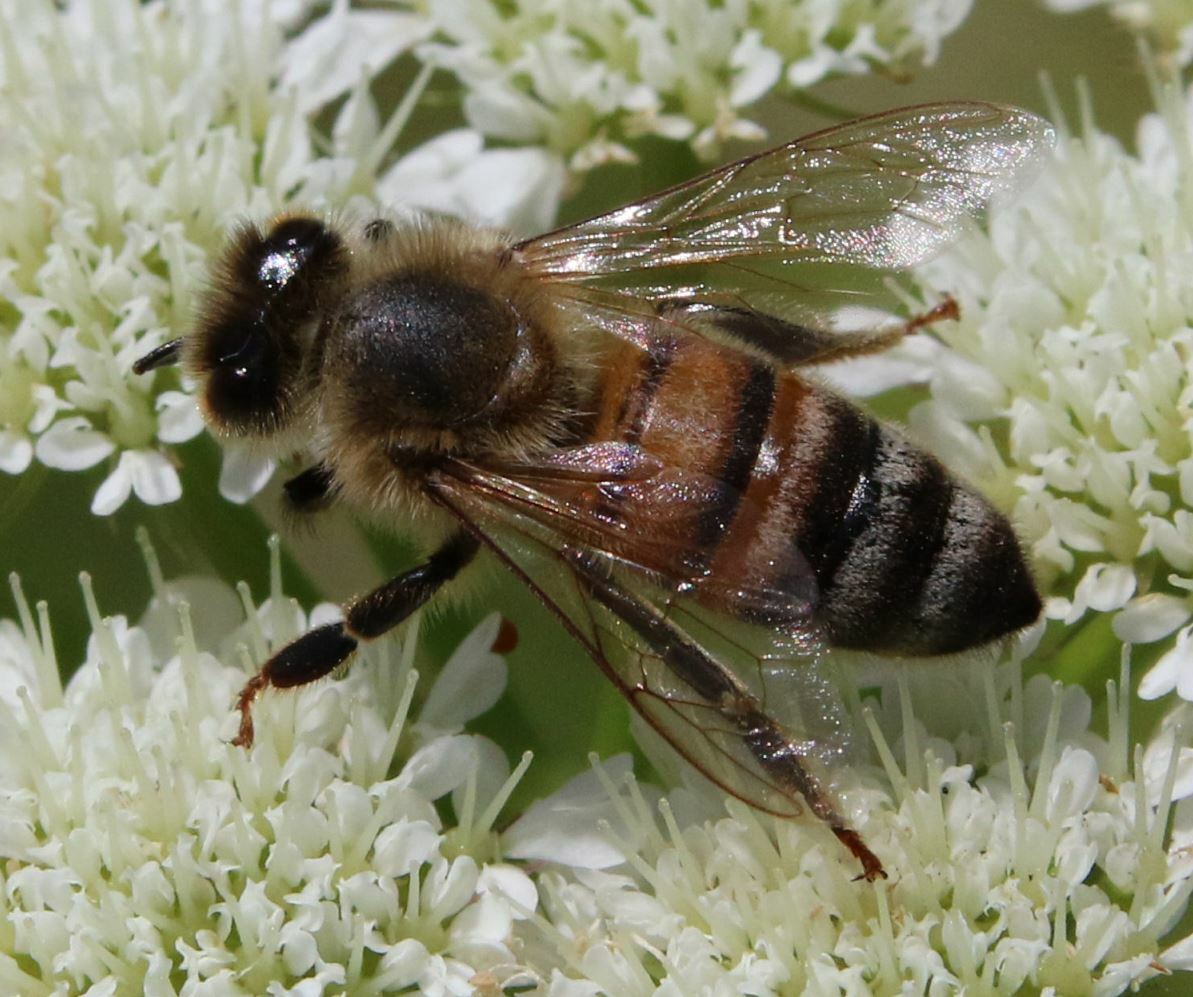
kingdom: Animalia
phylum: Arthropoda
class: Insecta
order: Hymenoptera
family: Apidae
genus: Apis
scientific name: Apis mellifera
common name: Honey bee
